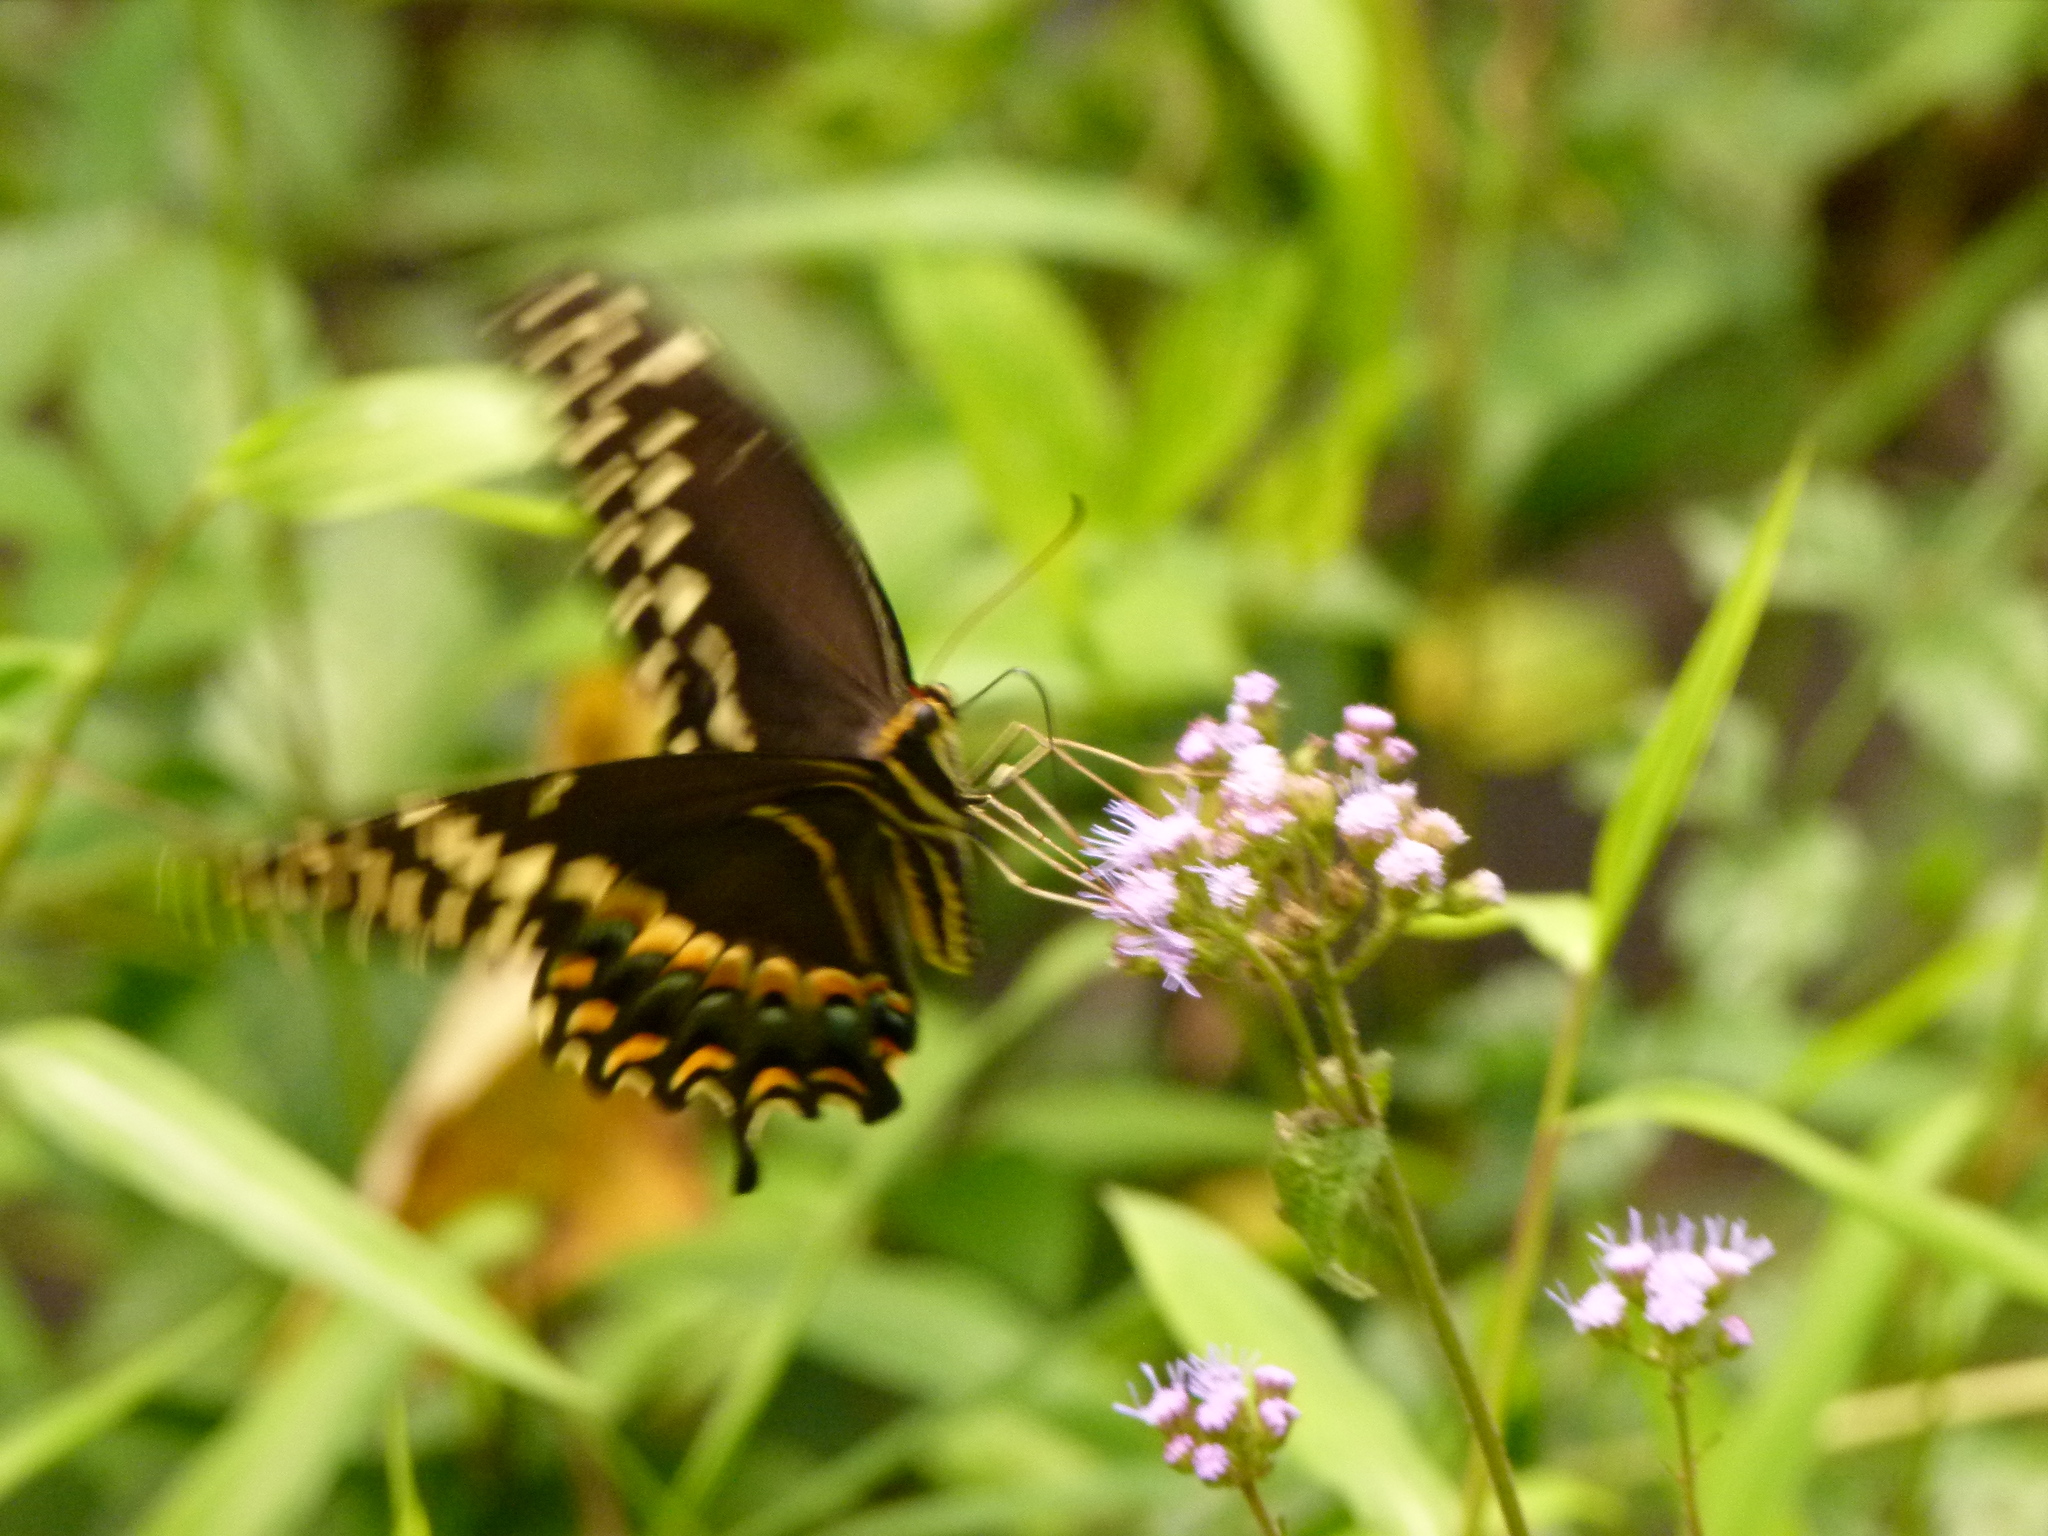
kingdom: Animalia
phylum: Arthropoda
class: Insecta
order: Lepidoptera
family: Papilionidae
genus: Papilio
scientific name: Papilio palamedes
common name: Palamedes swallowtail
